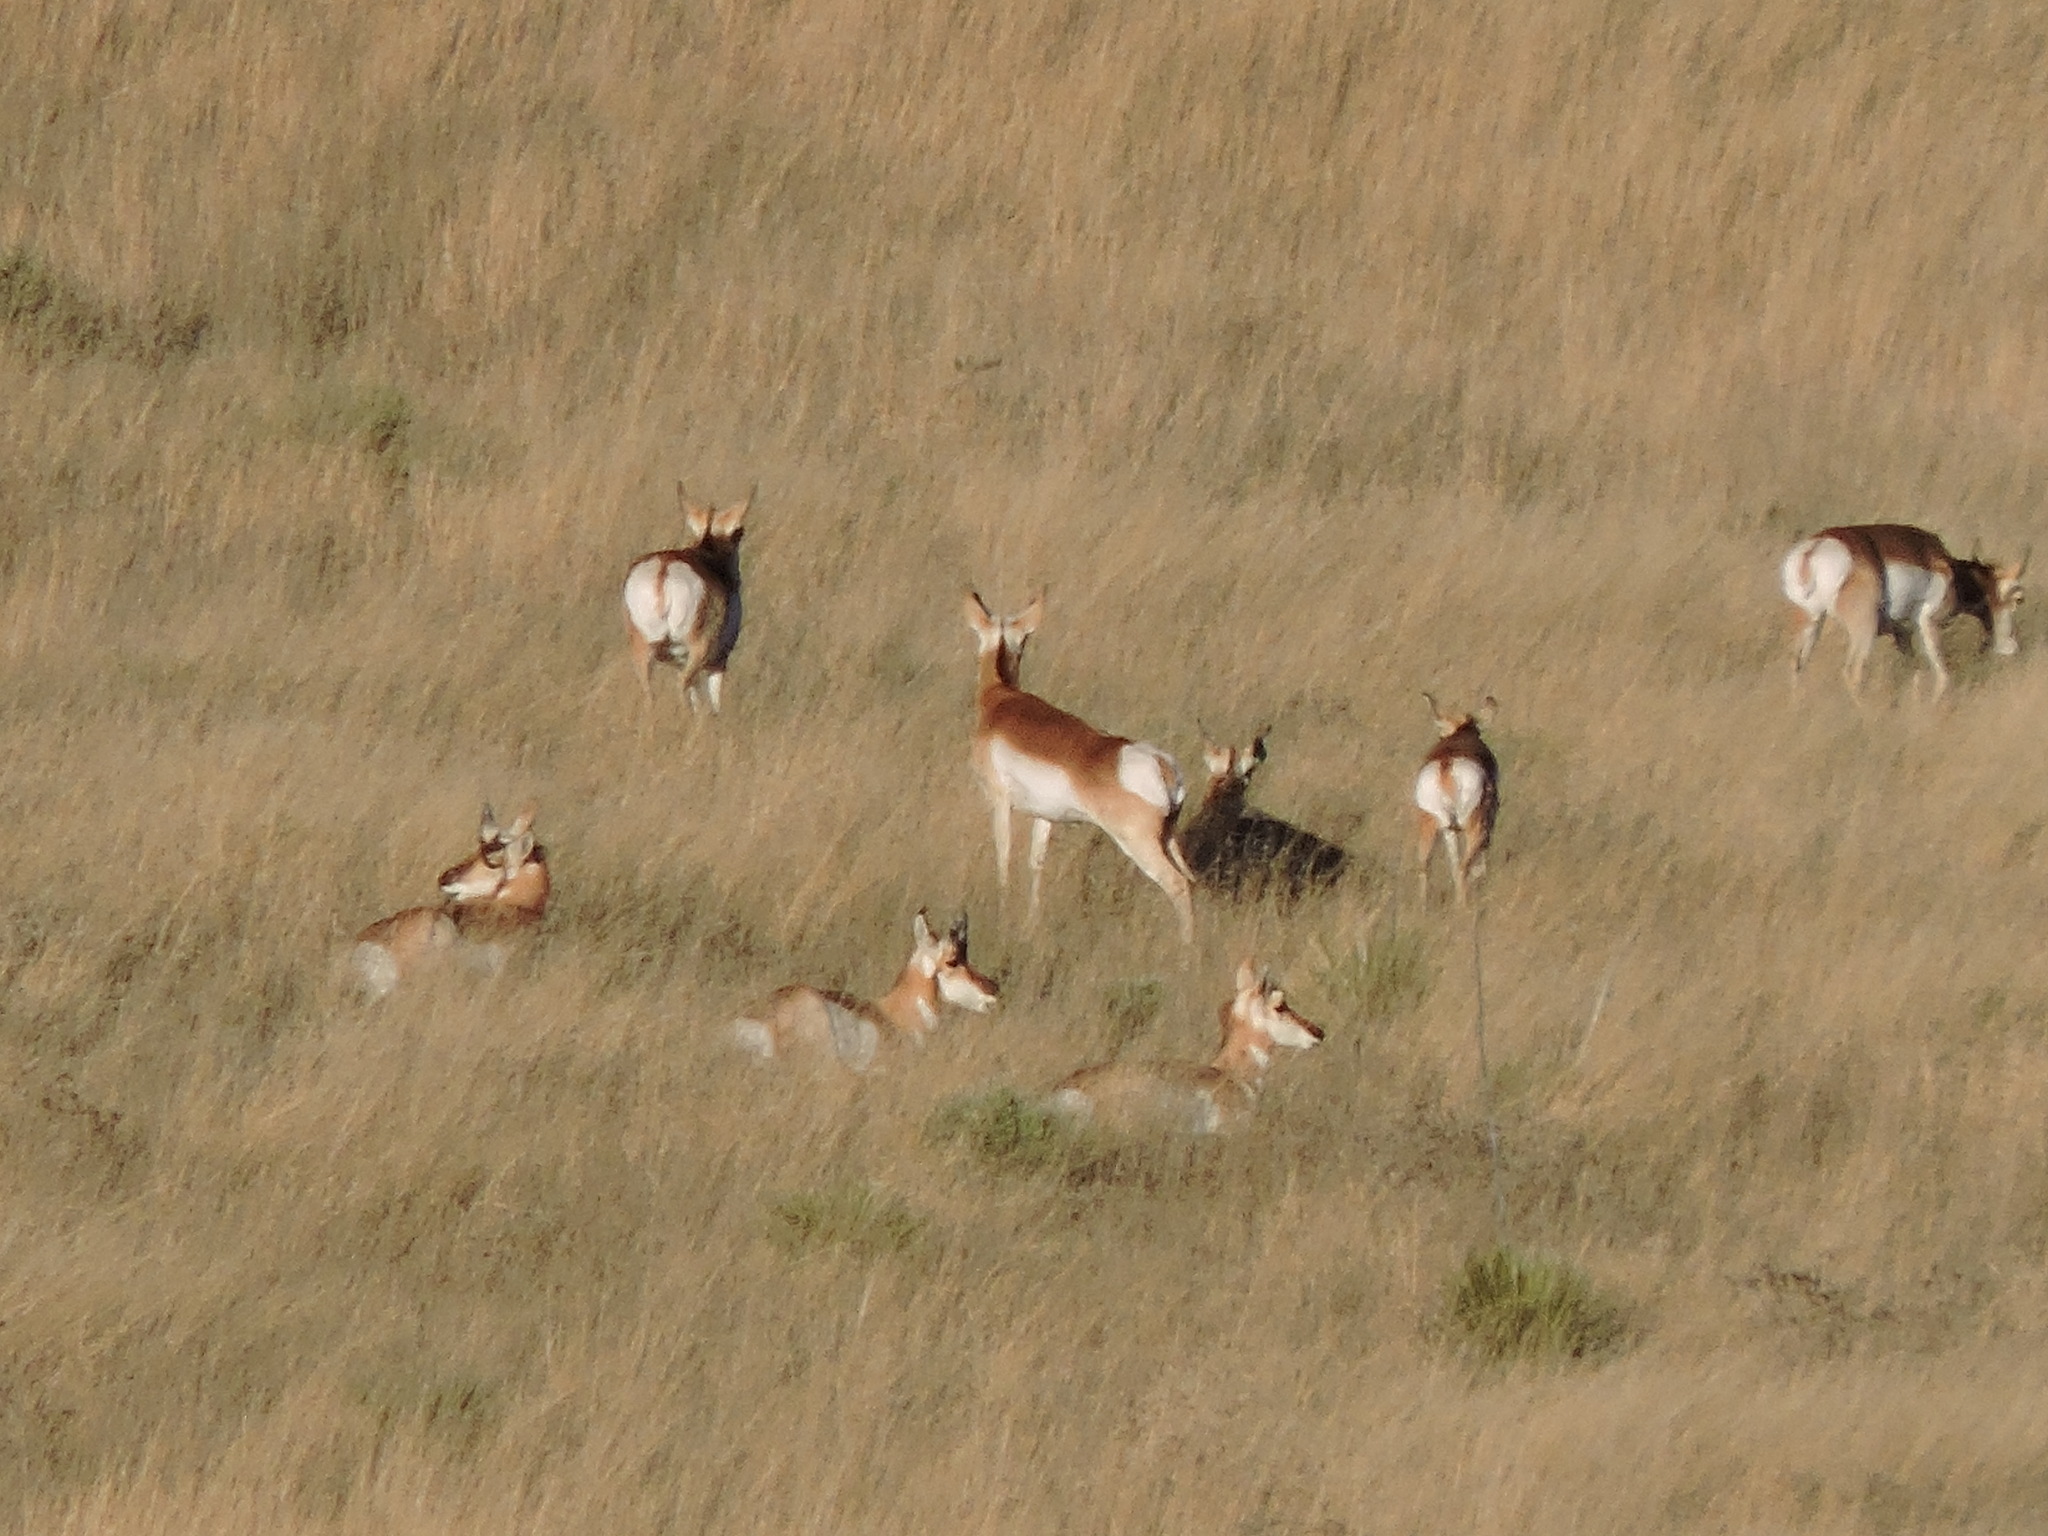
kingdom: Animalia
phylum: Chordata
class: Mammalia
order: Artiodactyla
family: Antilocapridae
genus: Antilocapra
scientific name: Antilocapra americana
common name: Pronghorn
